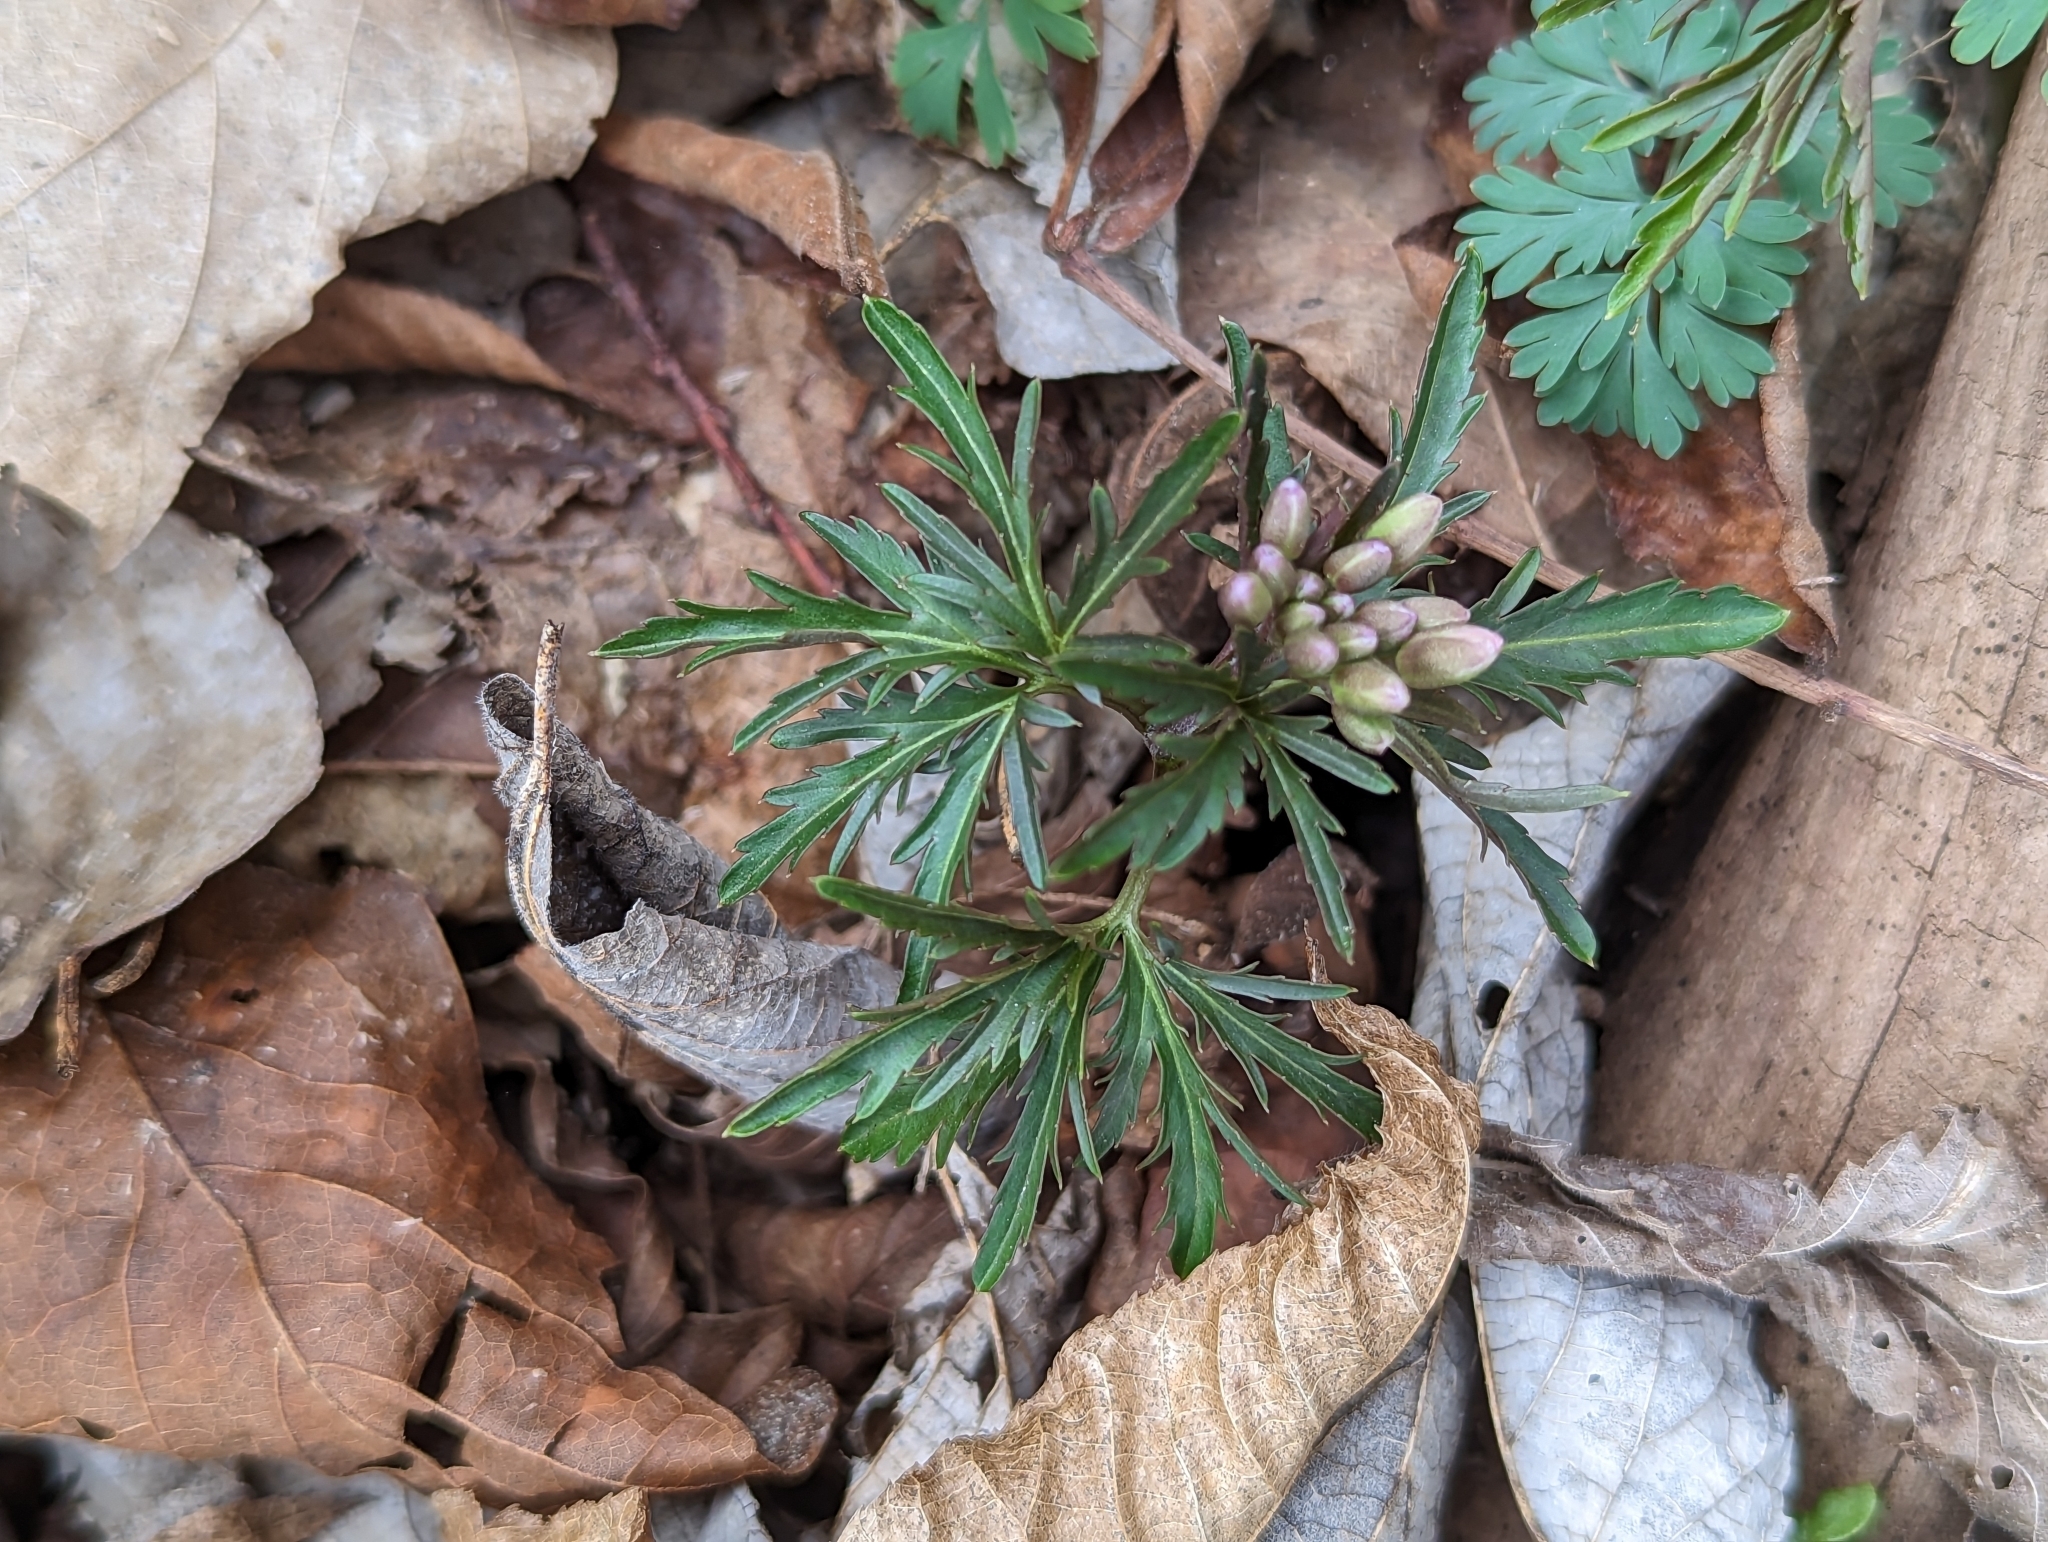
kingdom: Plantae
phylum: Tracheophyta
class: Magnoliopsida
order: Brassicales
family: Brassicaceae
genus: Cardamine
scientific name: Cardamine concatenata
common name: Cut-leaf toothcup
